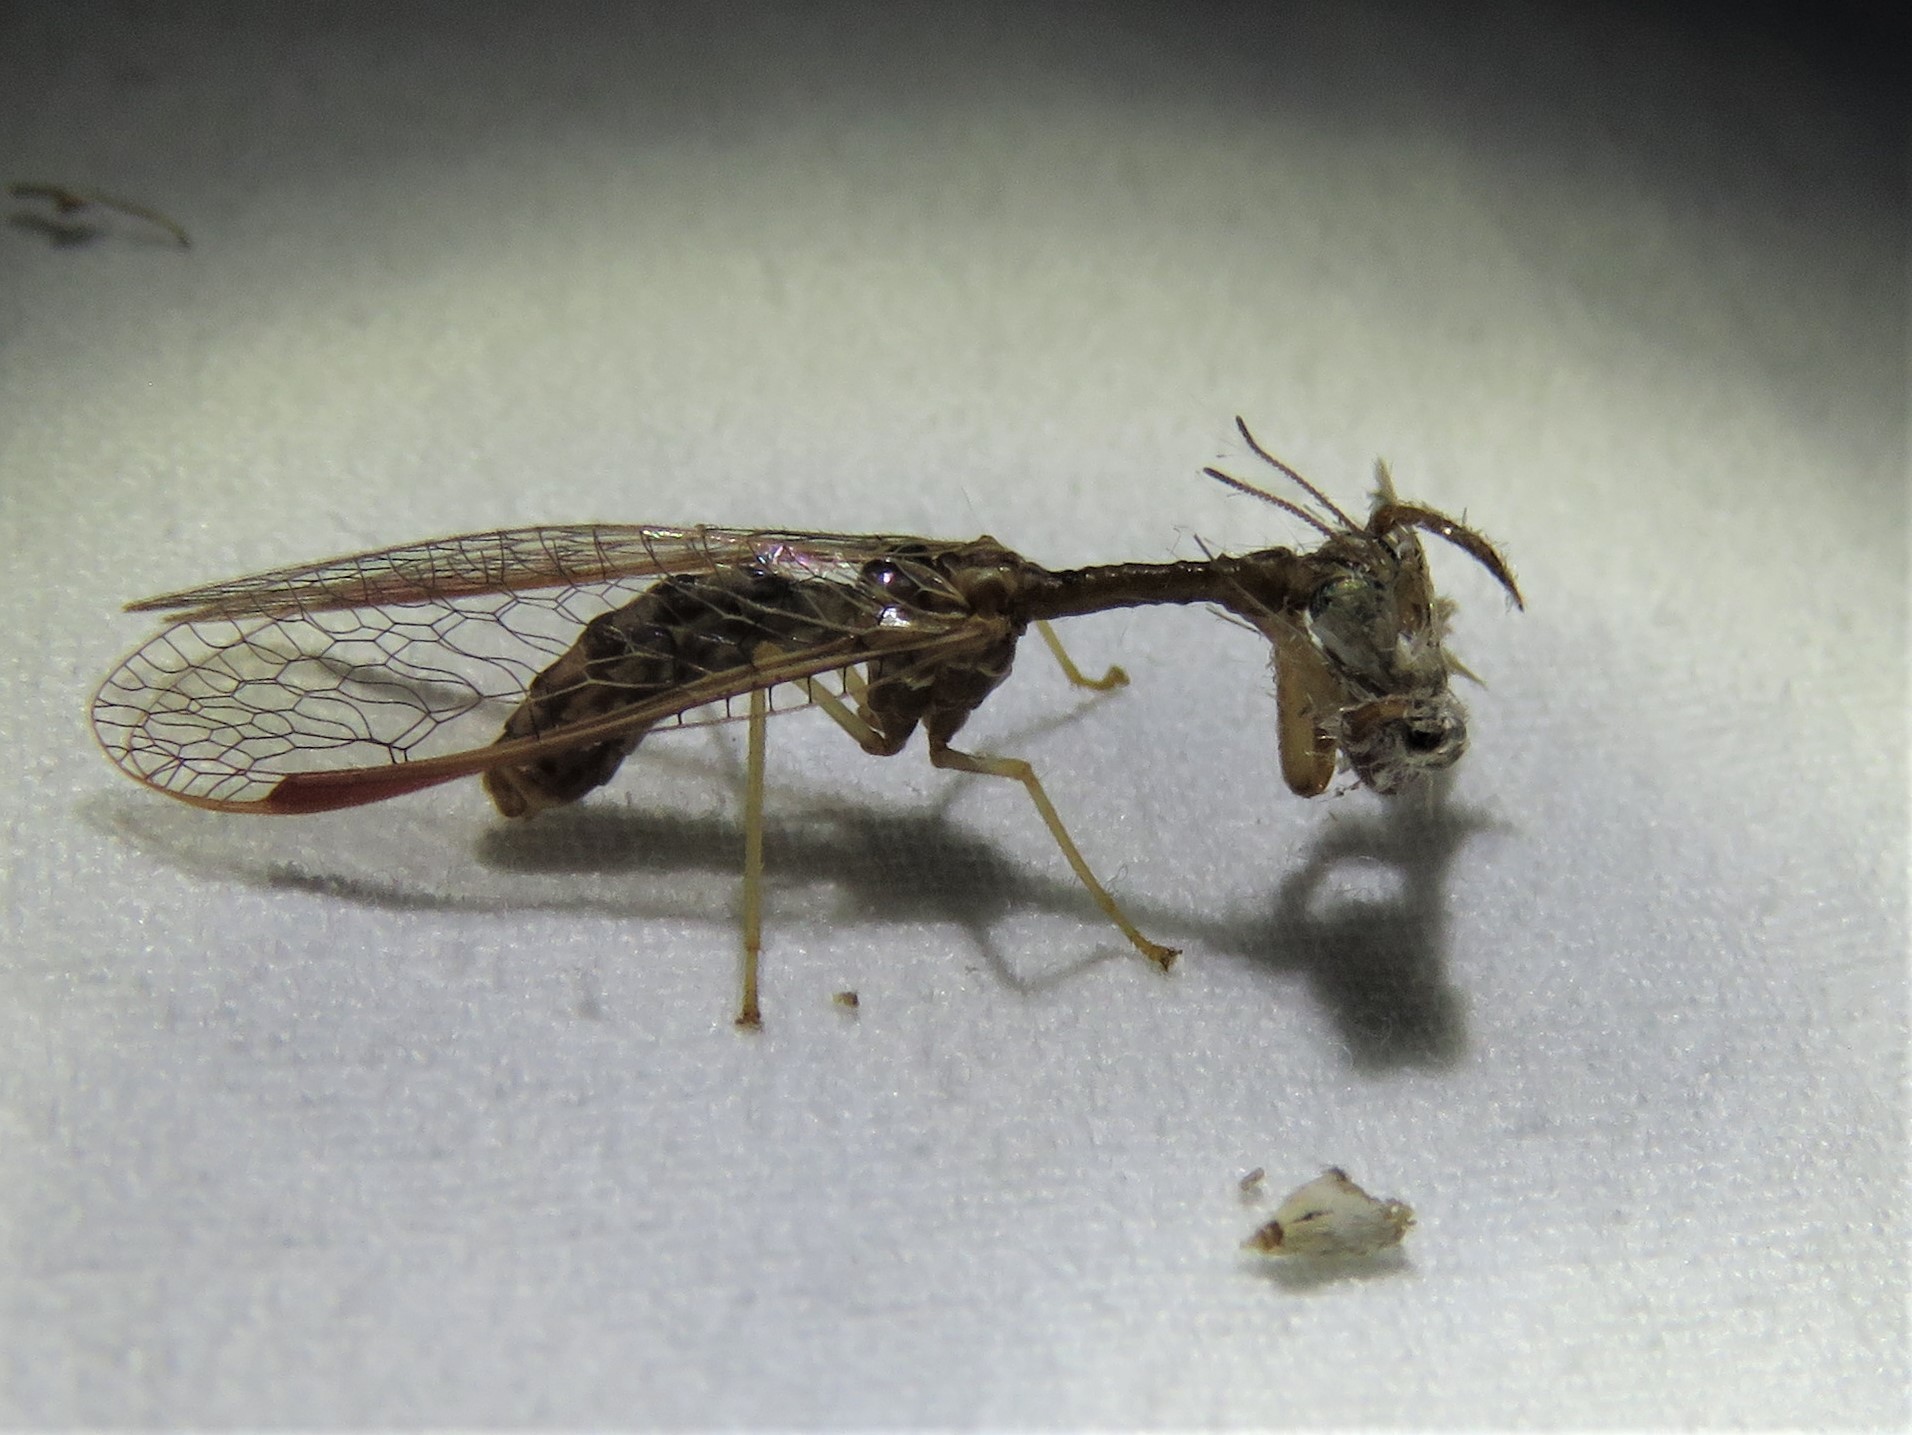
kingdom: Animalia
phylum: Arthropoda
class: Insecta
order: Neuroptera
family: Mantispidae
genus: Dicromantispa
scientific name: Dicromantispa sayi
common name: Say's mantidfly
